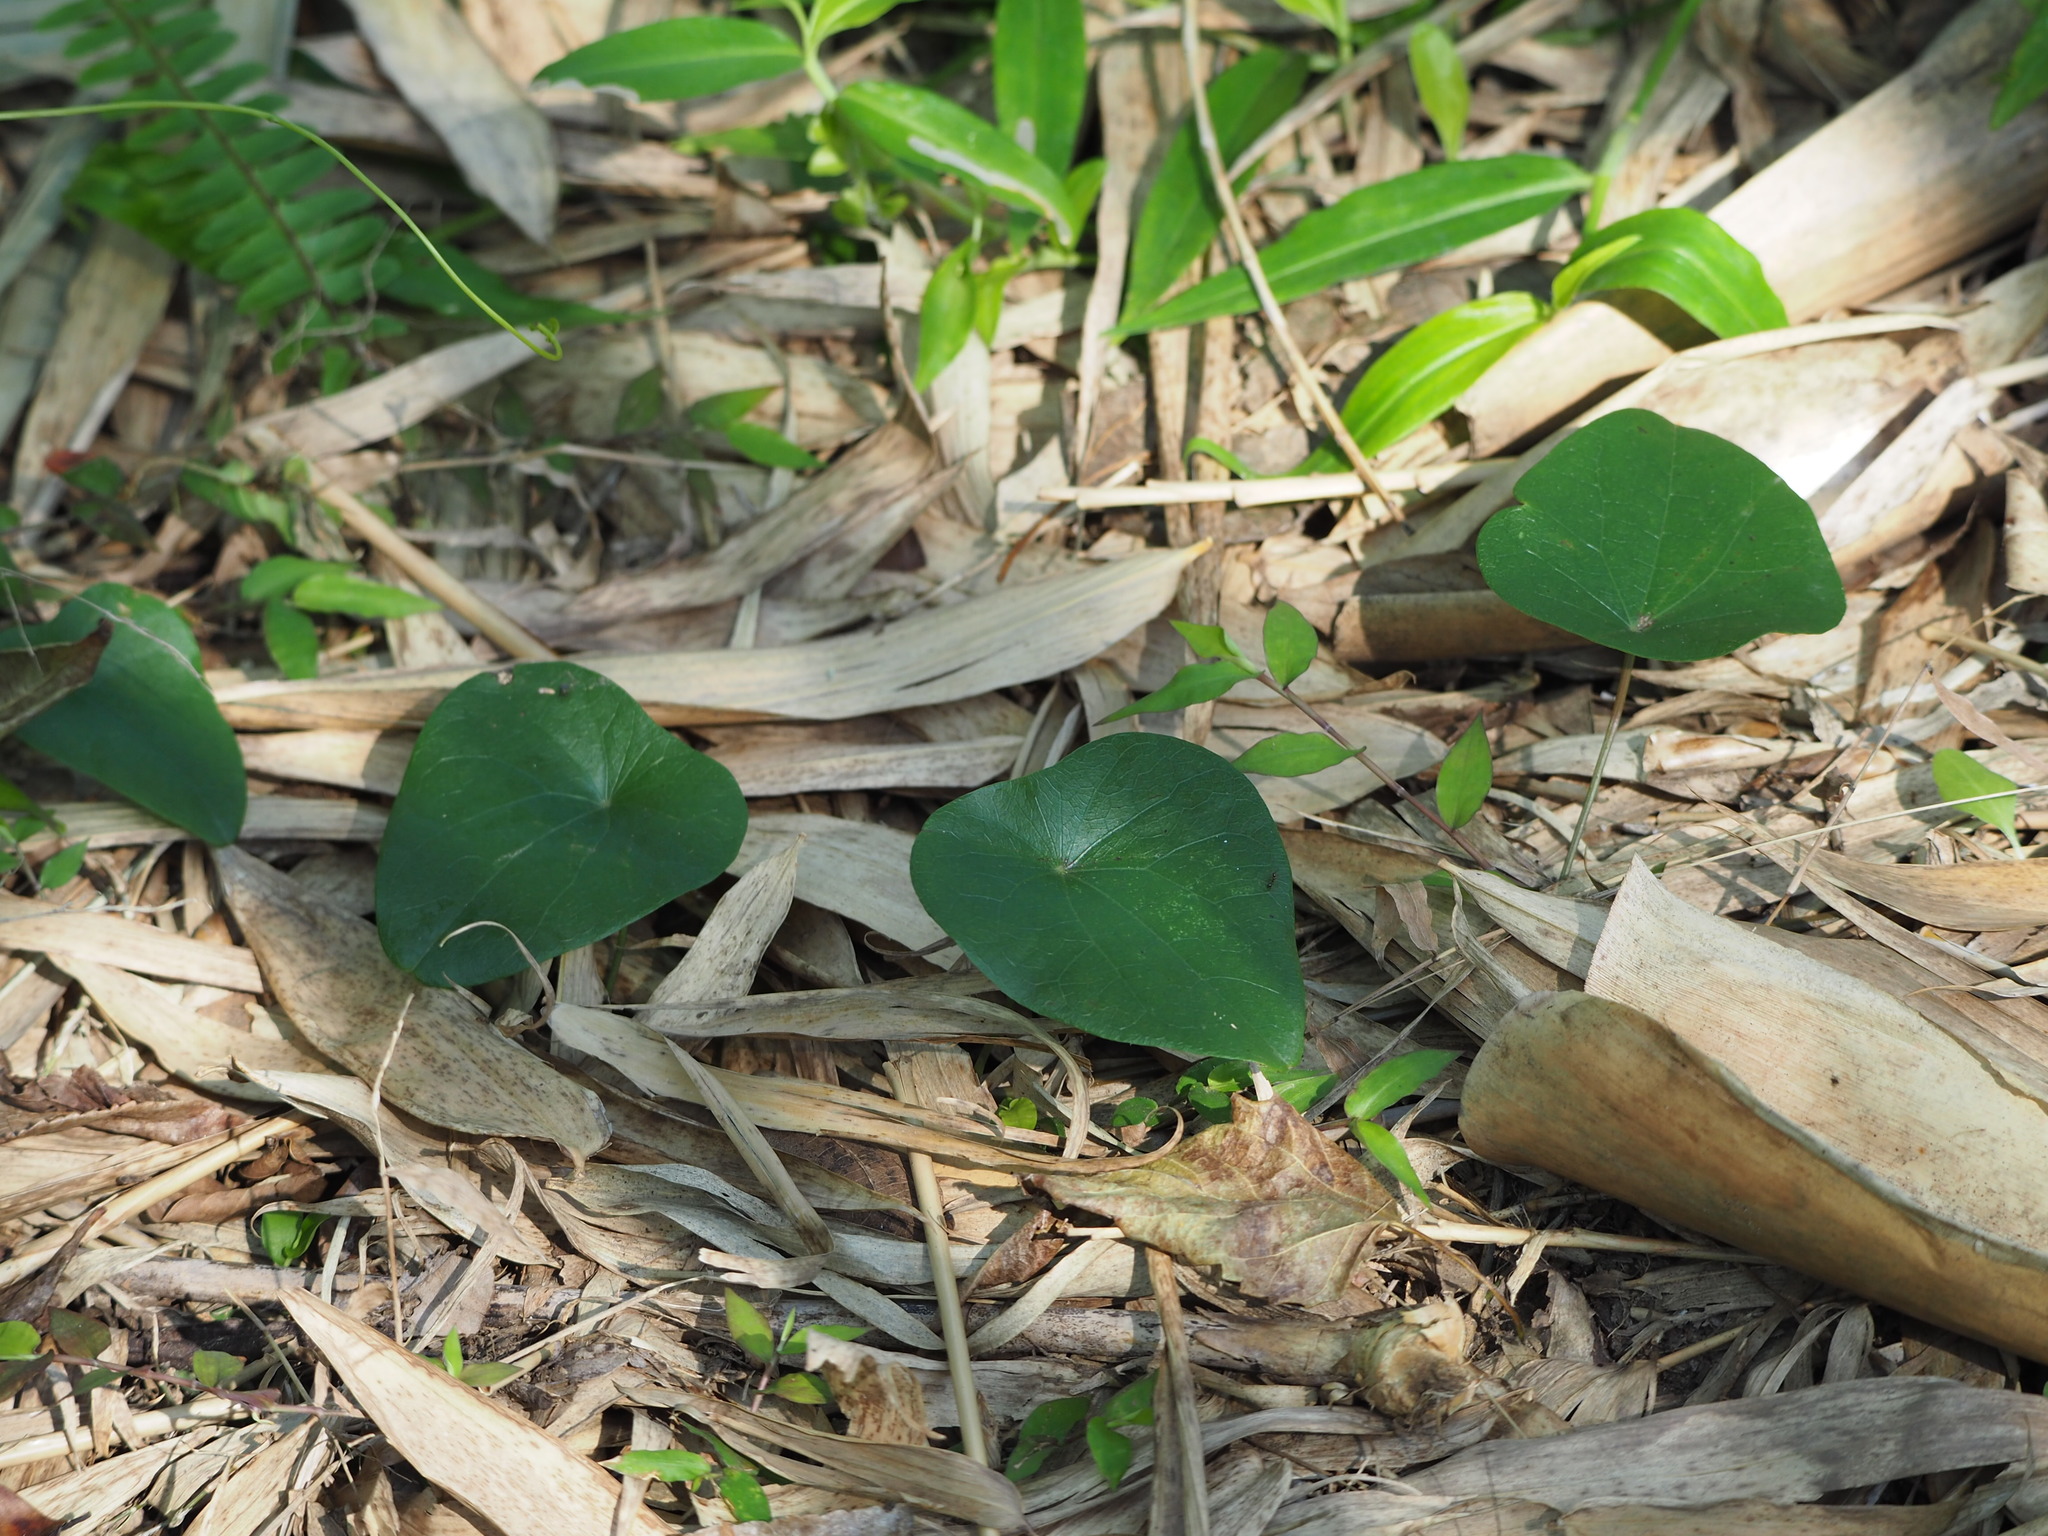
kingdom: Plantae
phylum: Tracheophyta
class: Magnoliopsida
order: Ranunculales
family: Menispermaceae
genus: Stephania
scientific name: Stephania japonica
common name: Snake vine
